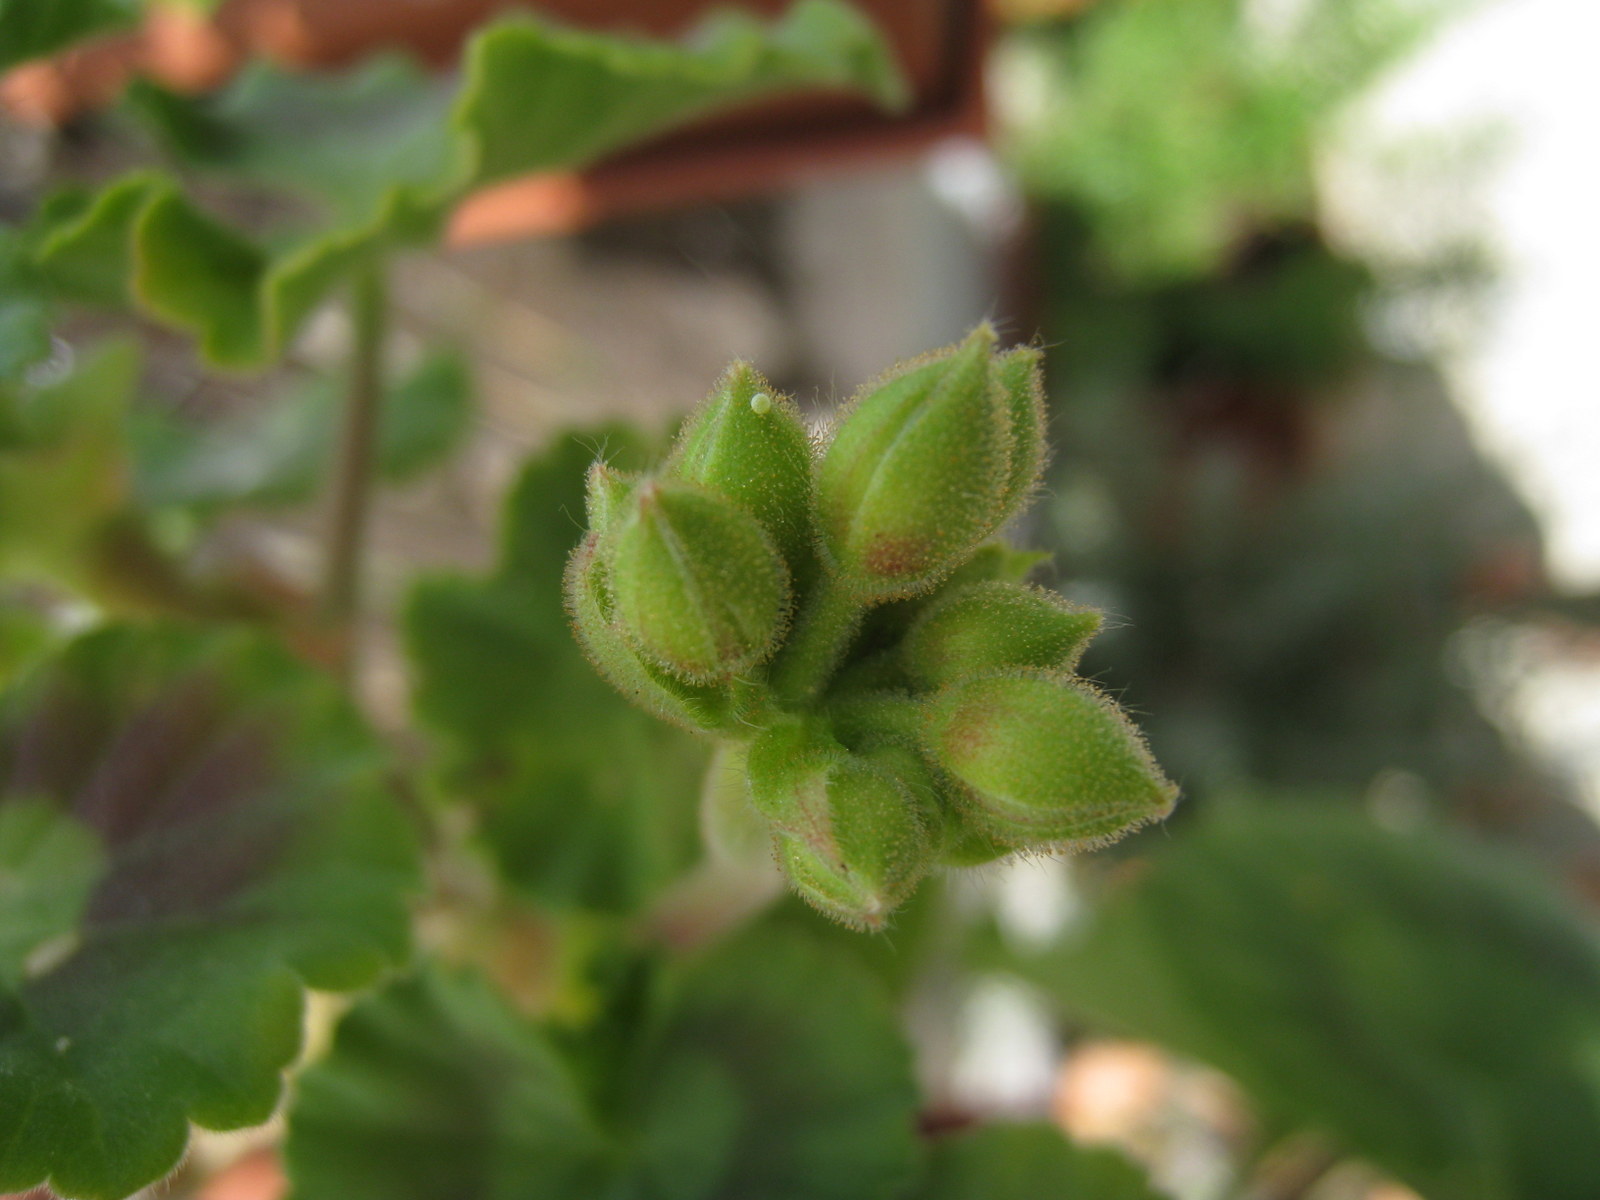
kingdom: Animalia
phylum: Arthropoda
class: Insecta
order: Lepidoptera
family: Lycaenidae
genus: Cacyreus
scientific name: Cacyreus marshalli
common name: Geranium bronze
